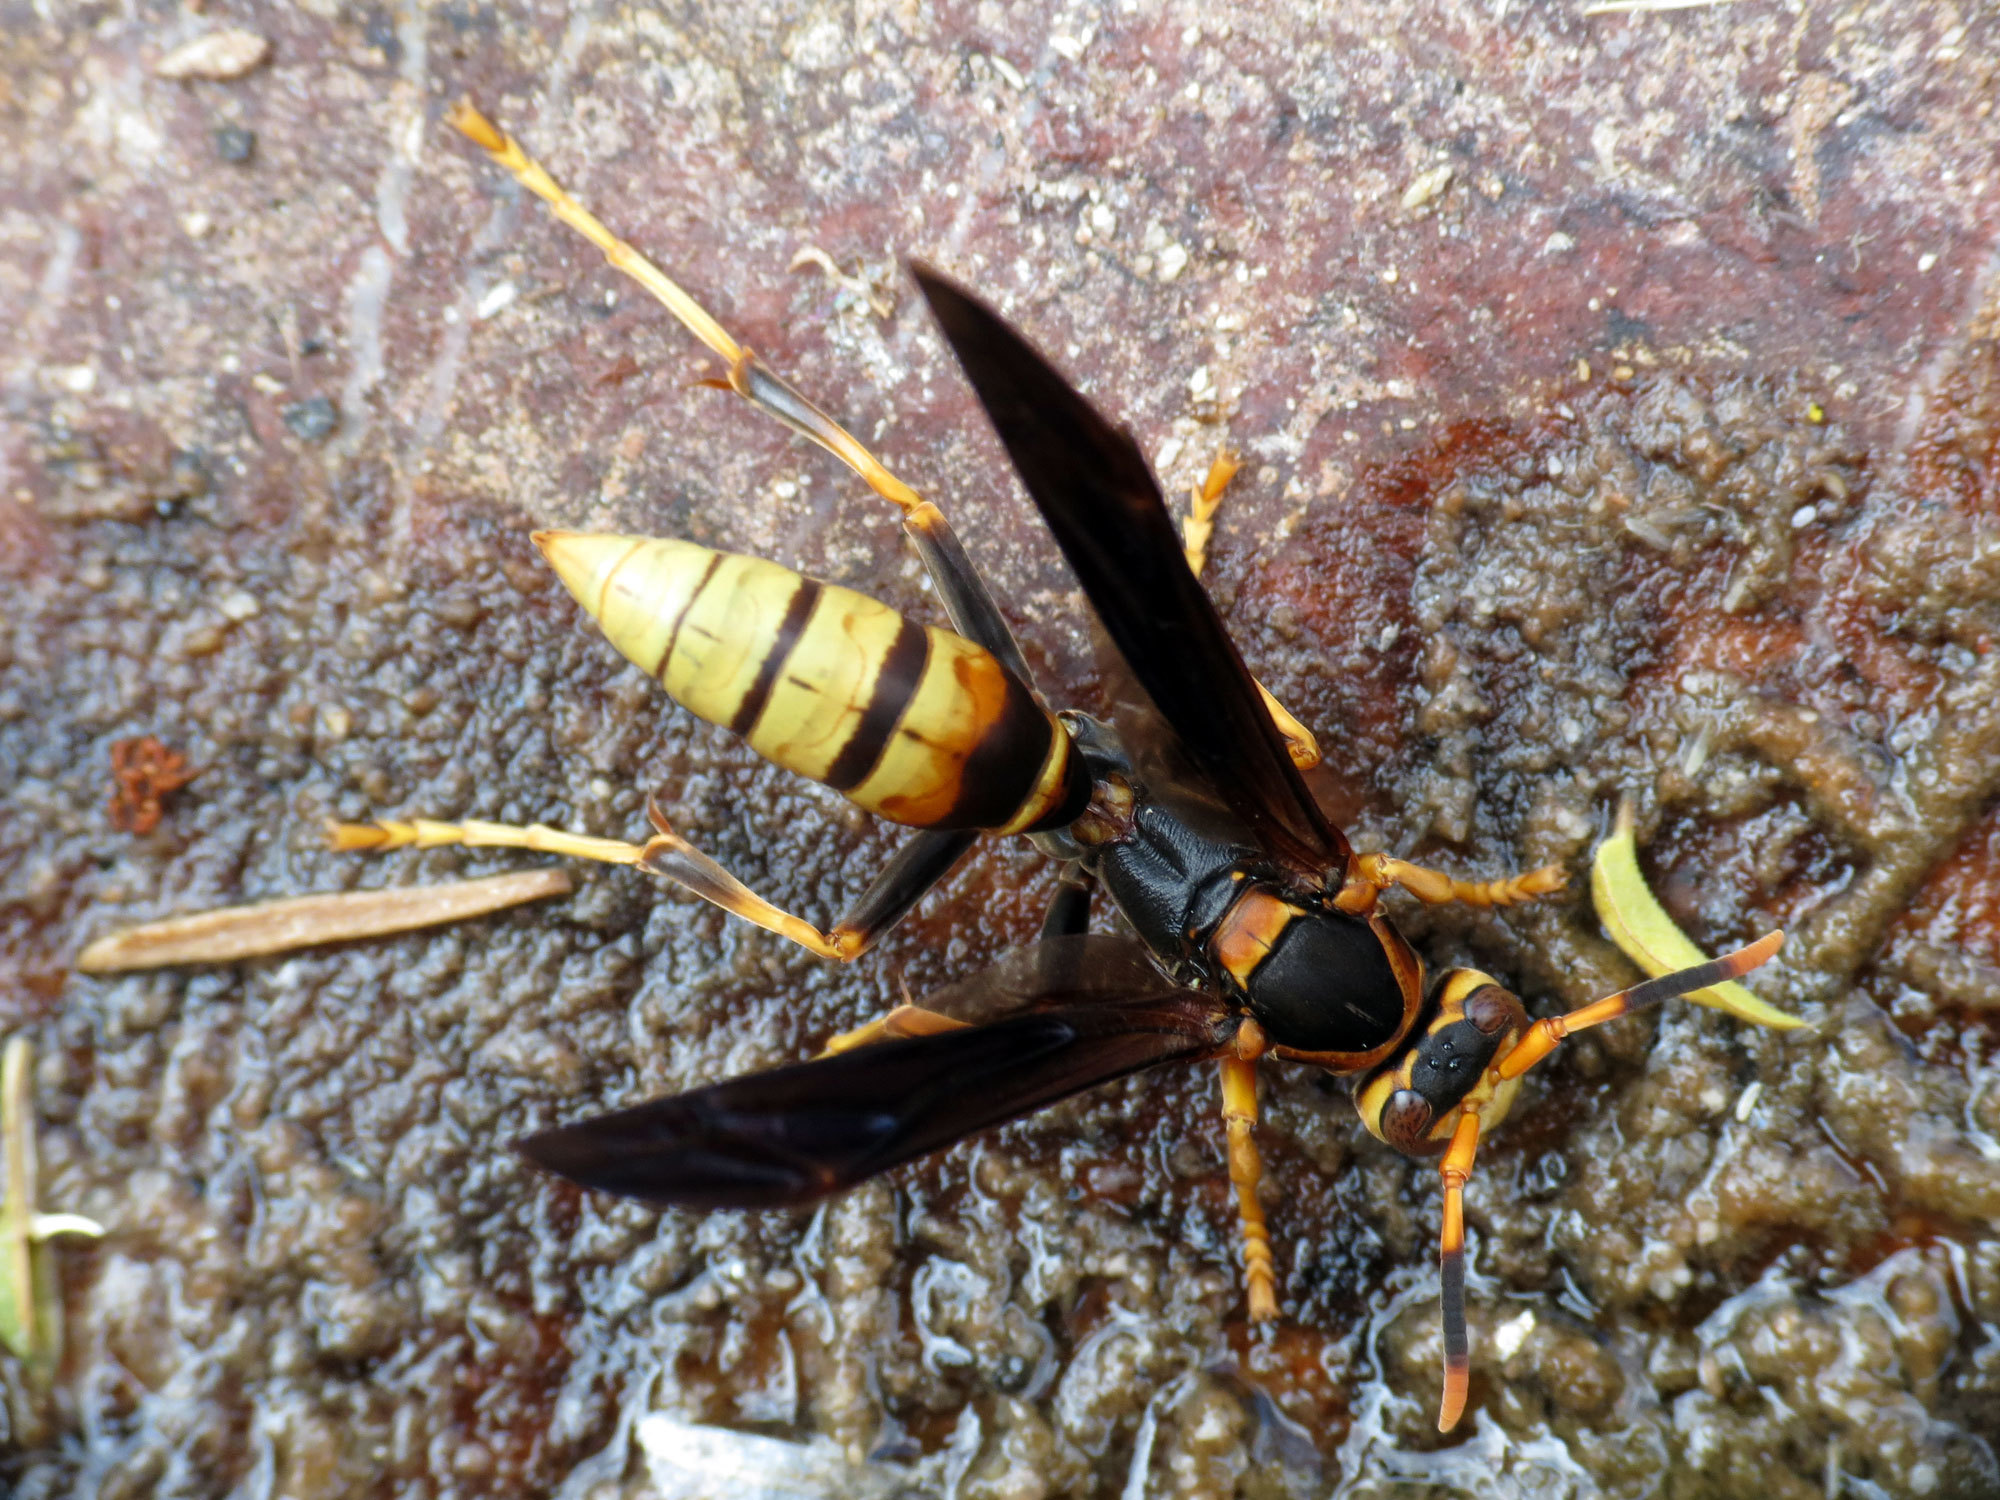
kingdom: Animalia
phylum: Arthropoda
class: Insecta
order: Hymenoptera
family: Eumenidae
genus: Polistes
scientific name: Polistes comanchus
